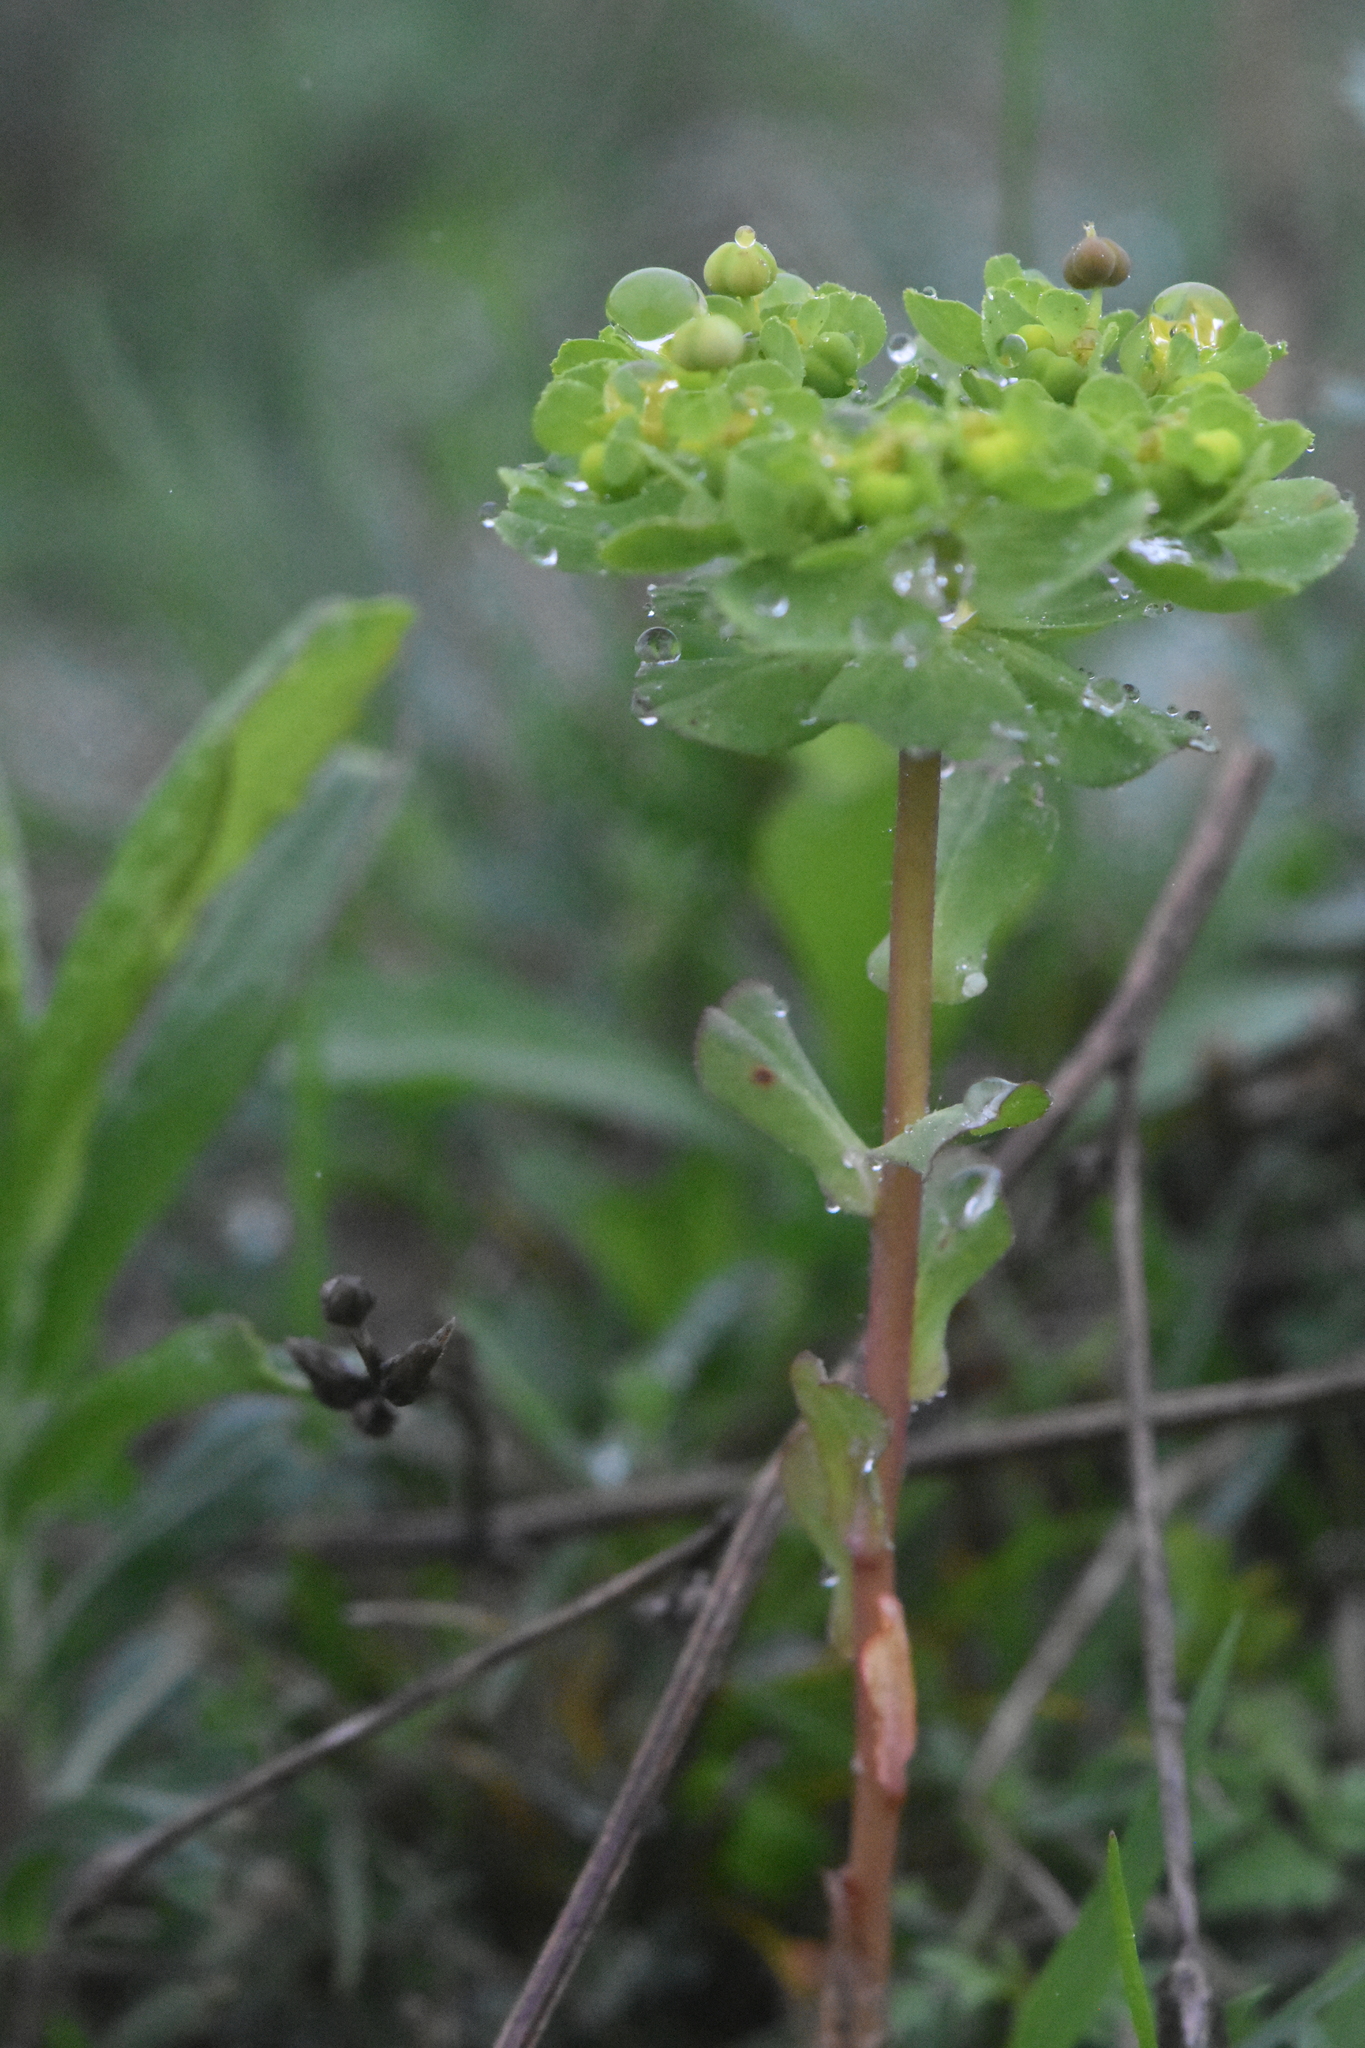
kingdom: Plantae
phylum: Tracheophyta
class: Magnoliopsida
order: Malpighiales
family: Euphorbiaceae
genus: Euphorbia
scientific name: Euphorbia helioscopia
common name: Sun spurge
